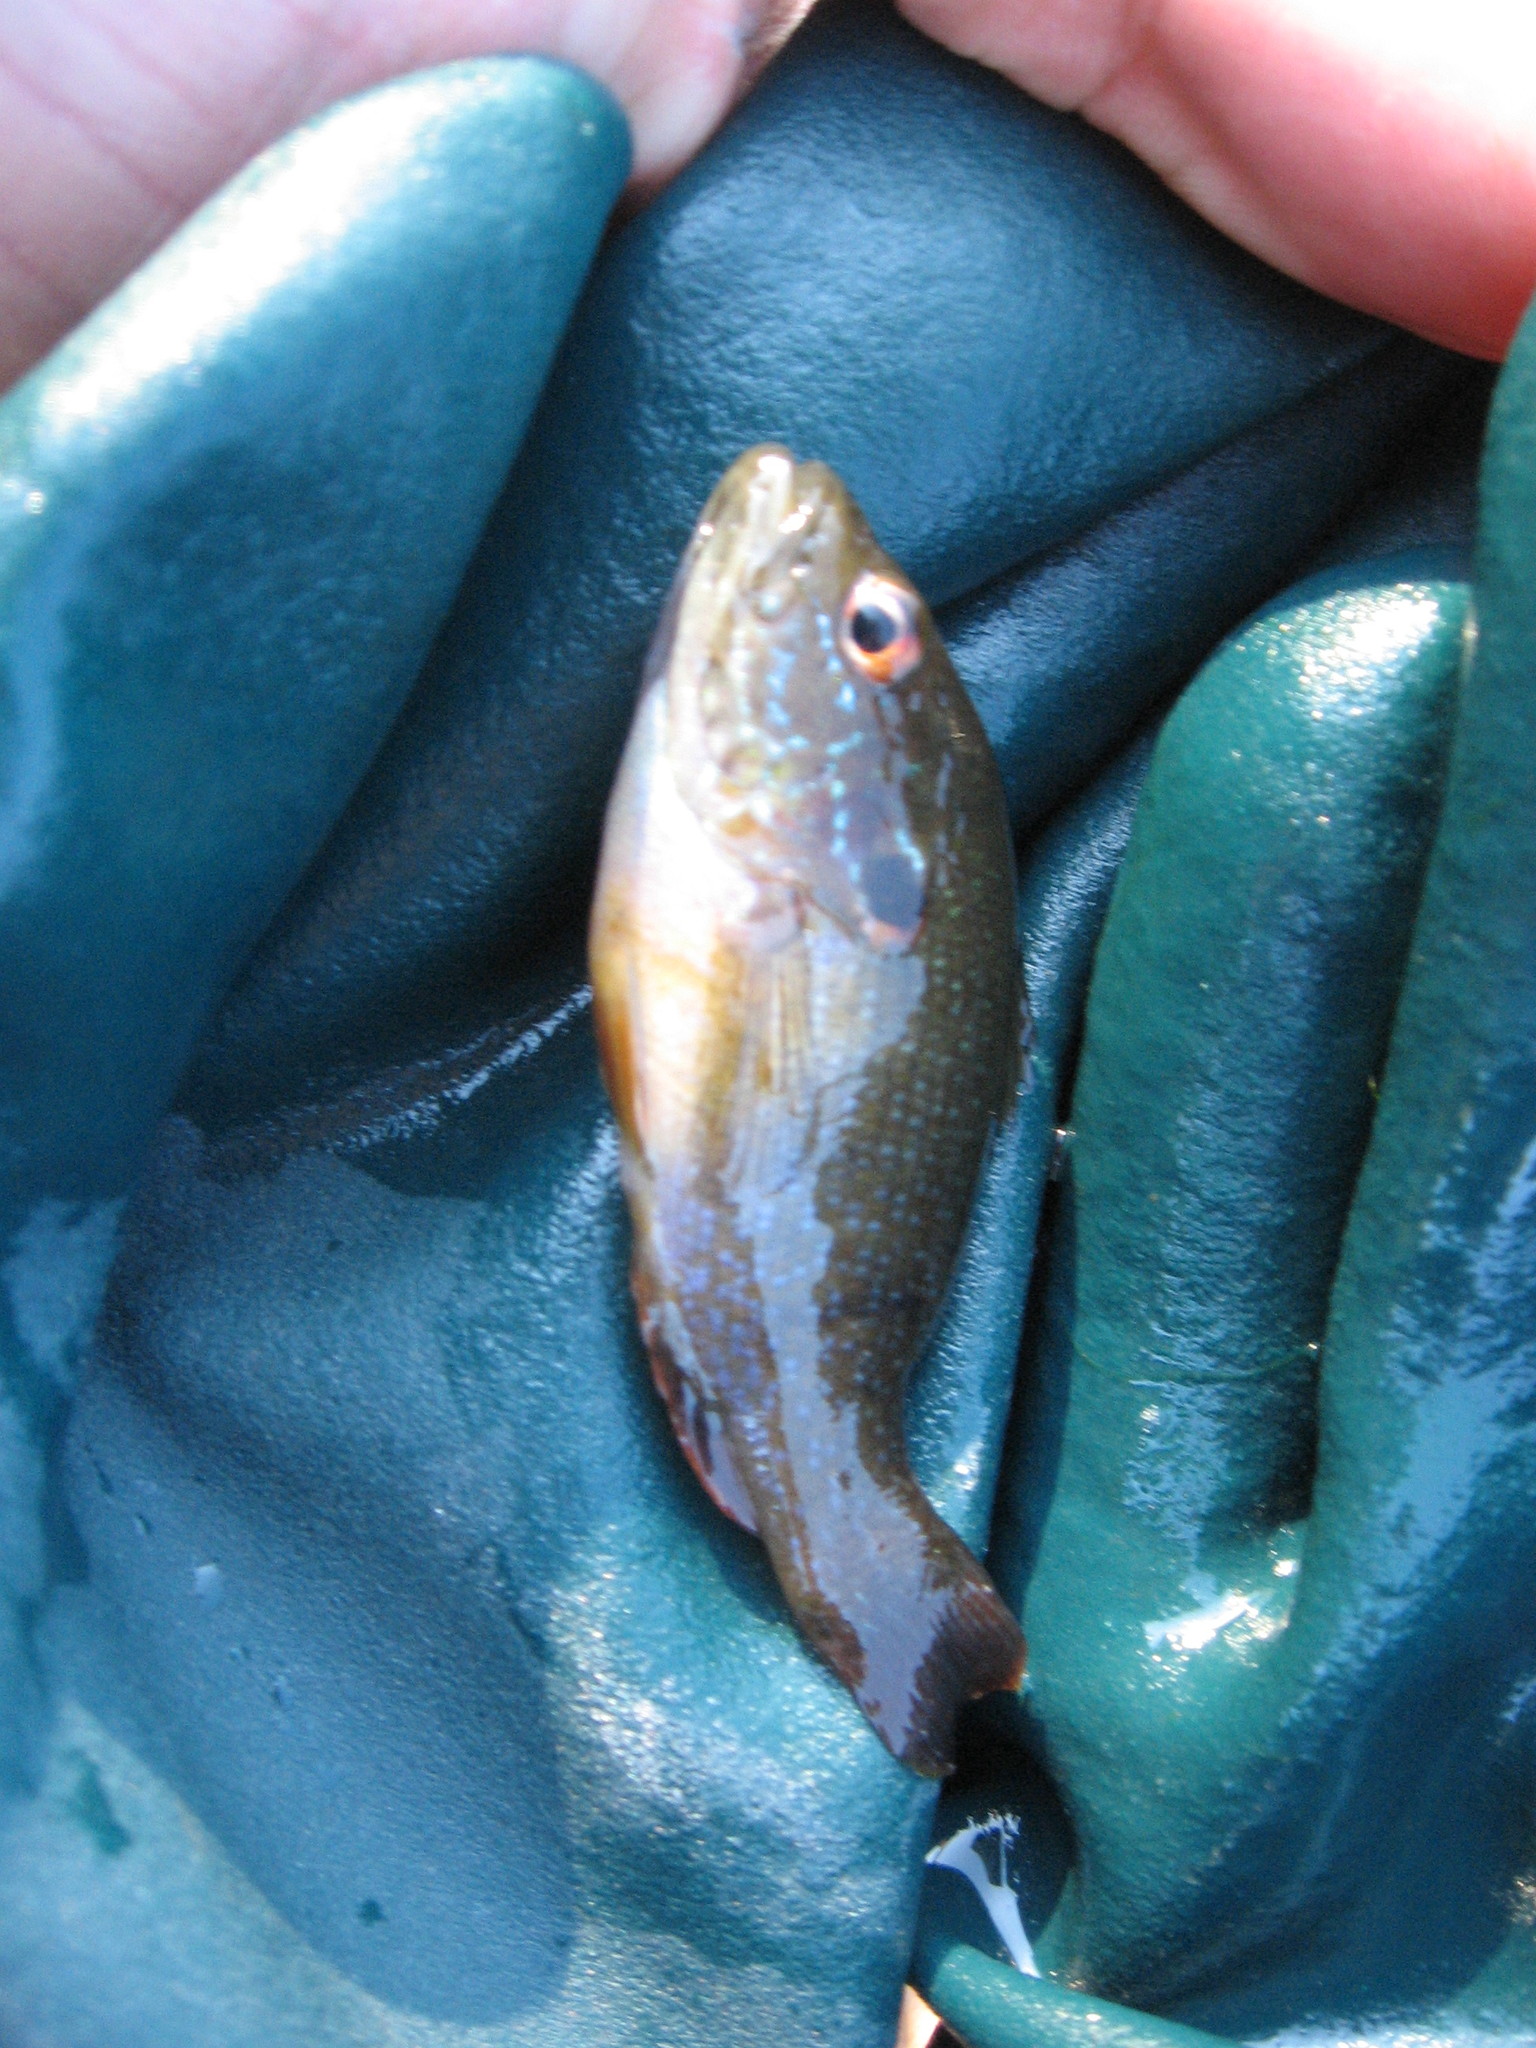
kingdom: Animalia
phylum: Chordata
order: Perciformes
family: Centrarchidae
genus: Lepomis
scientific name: Lepomis cyanellus
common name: Green sunfish
